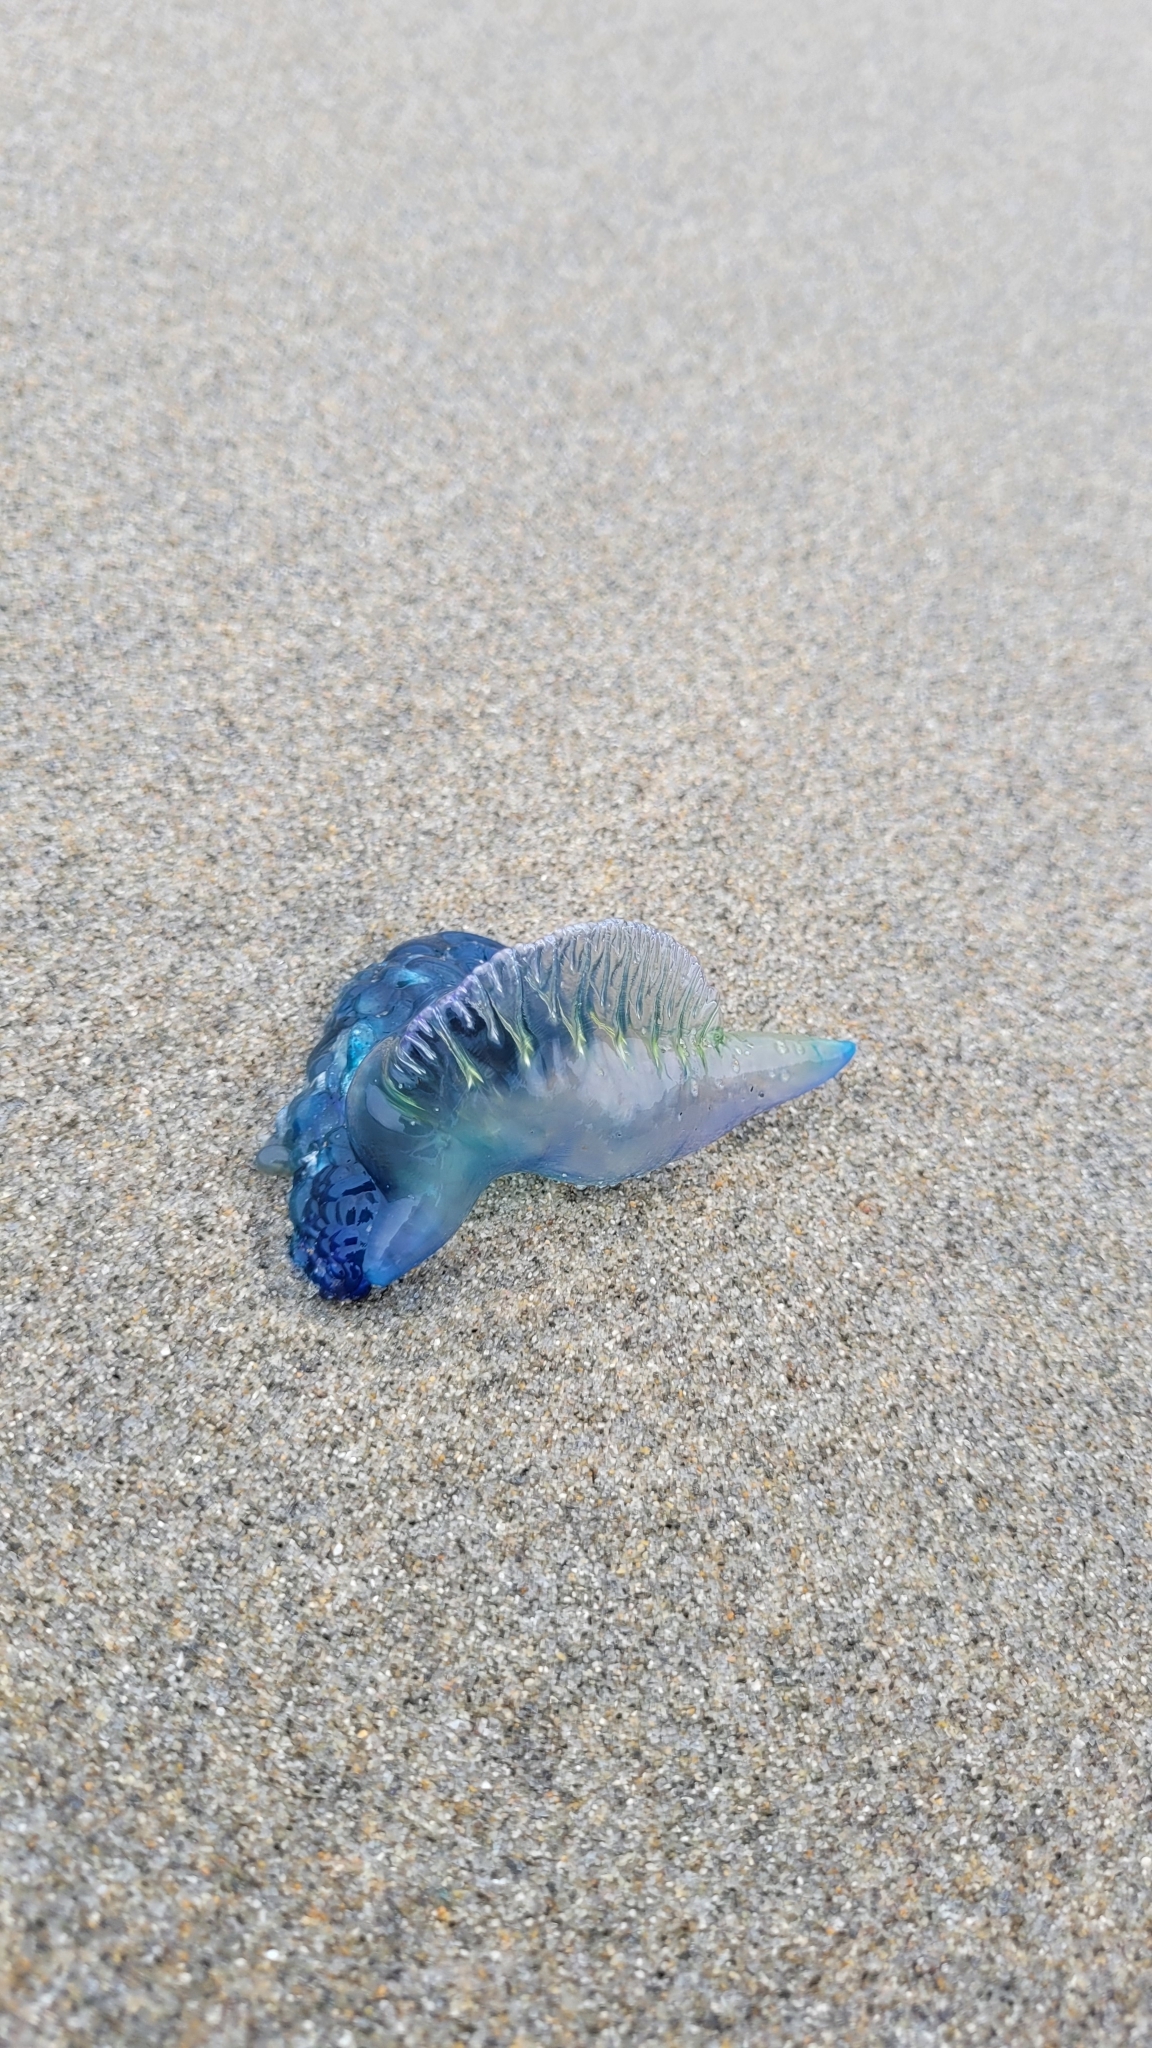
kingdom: Animalia
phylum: Cnidaria
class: Hydrozoa
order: Siphonophorae
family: Physaliidae
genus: Physalia
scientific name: Physalia physalis
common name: Portuguese man-of-war
